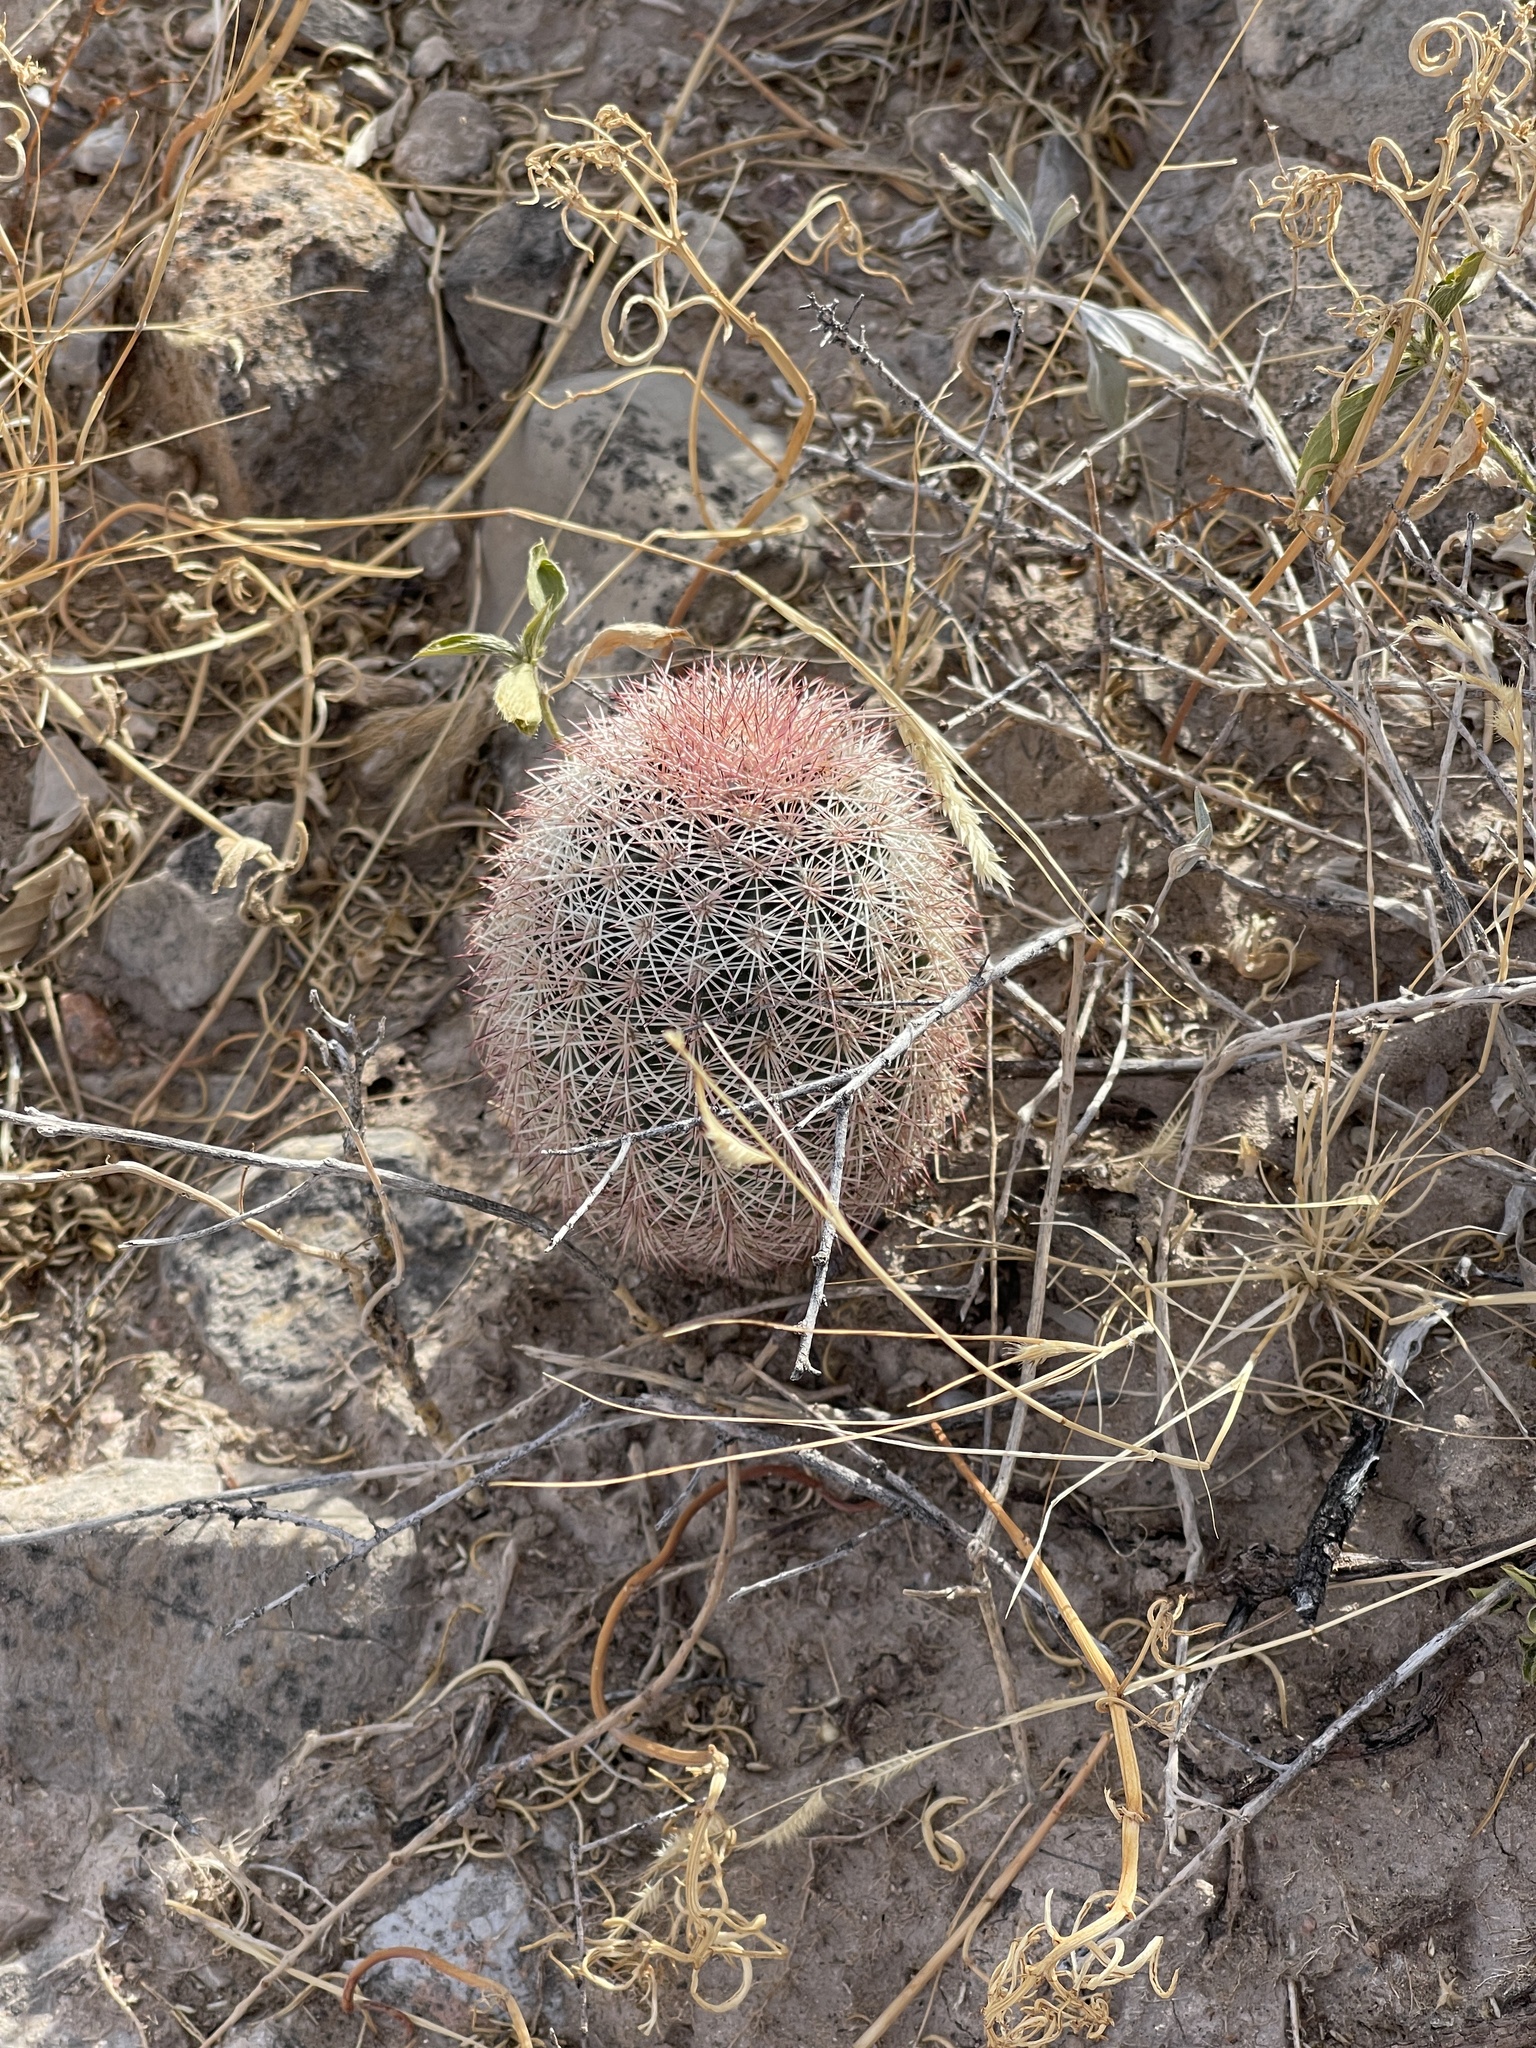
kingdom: Plantae
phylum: Tracheophyta
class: Magnoliopsida
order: Caryophyllales
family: Cactaceae
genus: Echinocereus
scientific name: Echinocereus dasyacanthus
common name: Spiny hedgehog cactus
